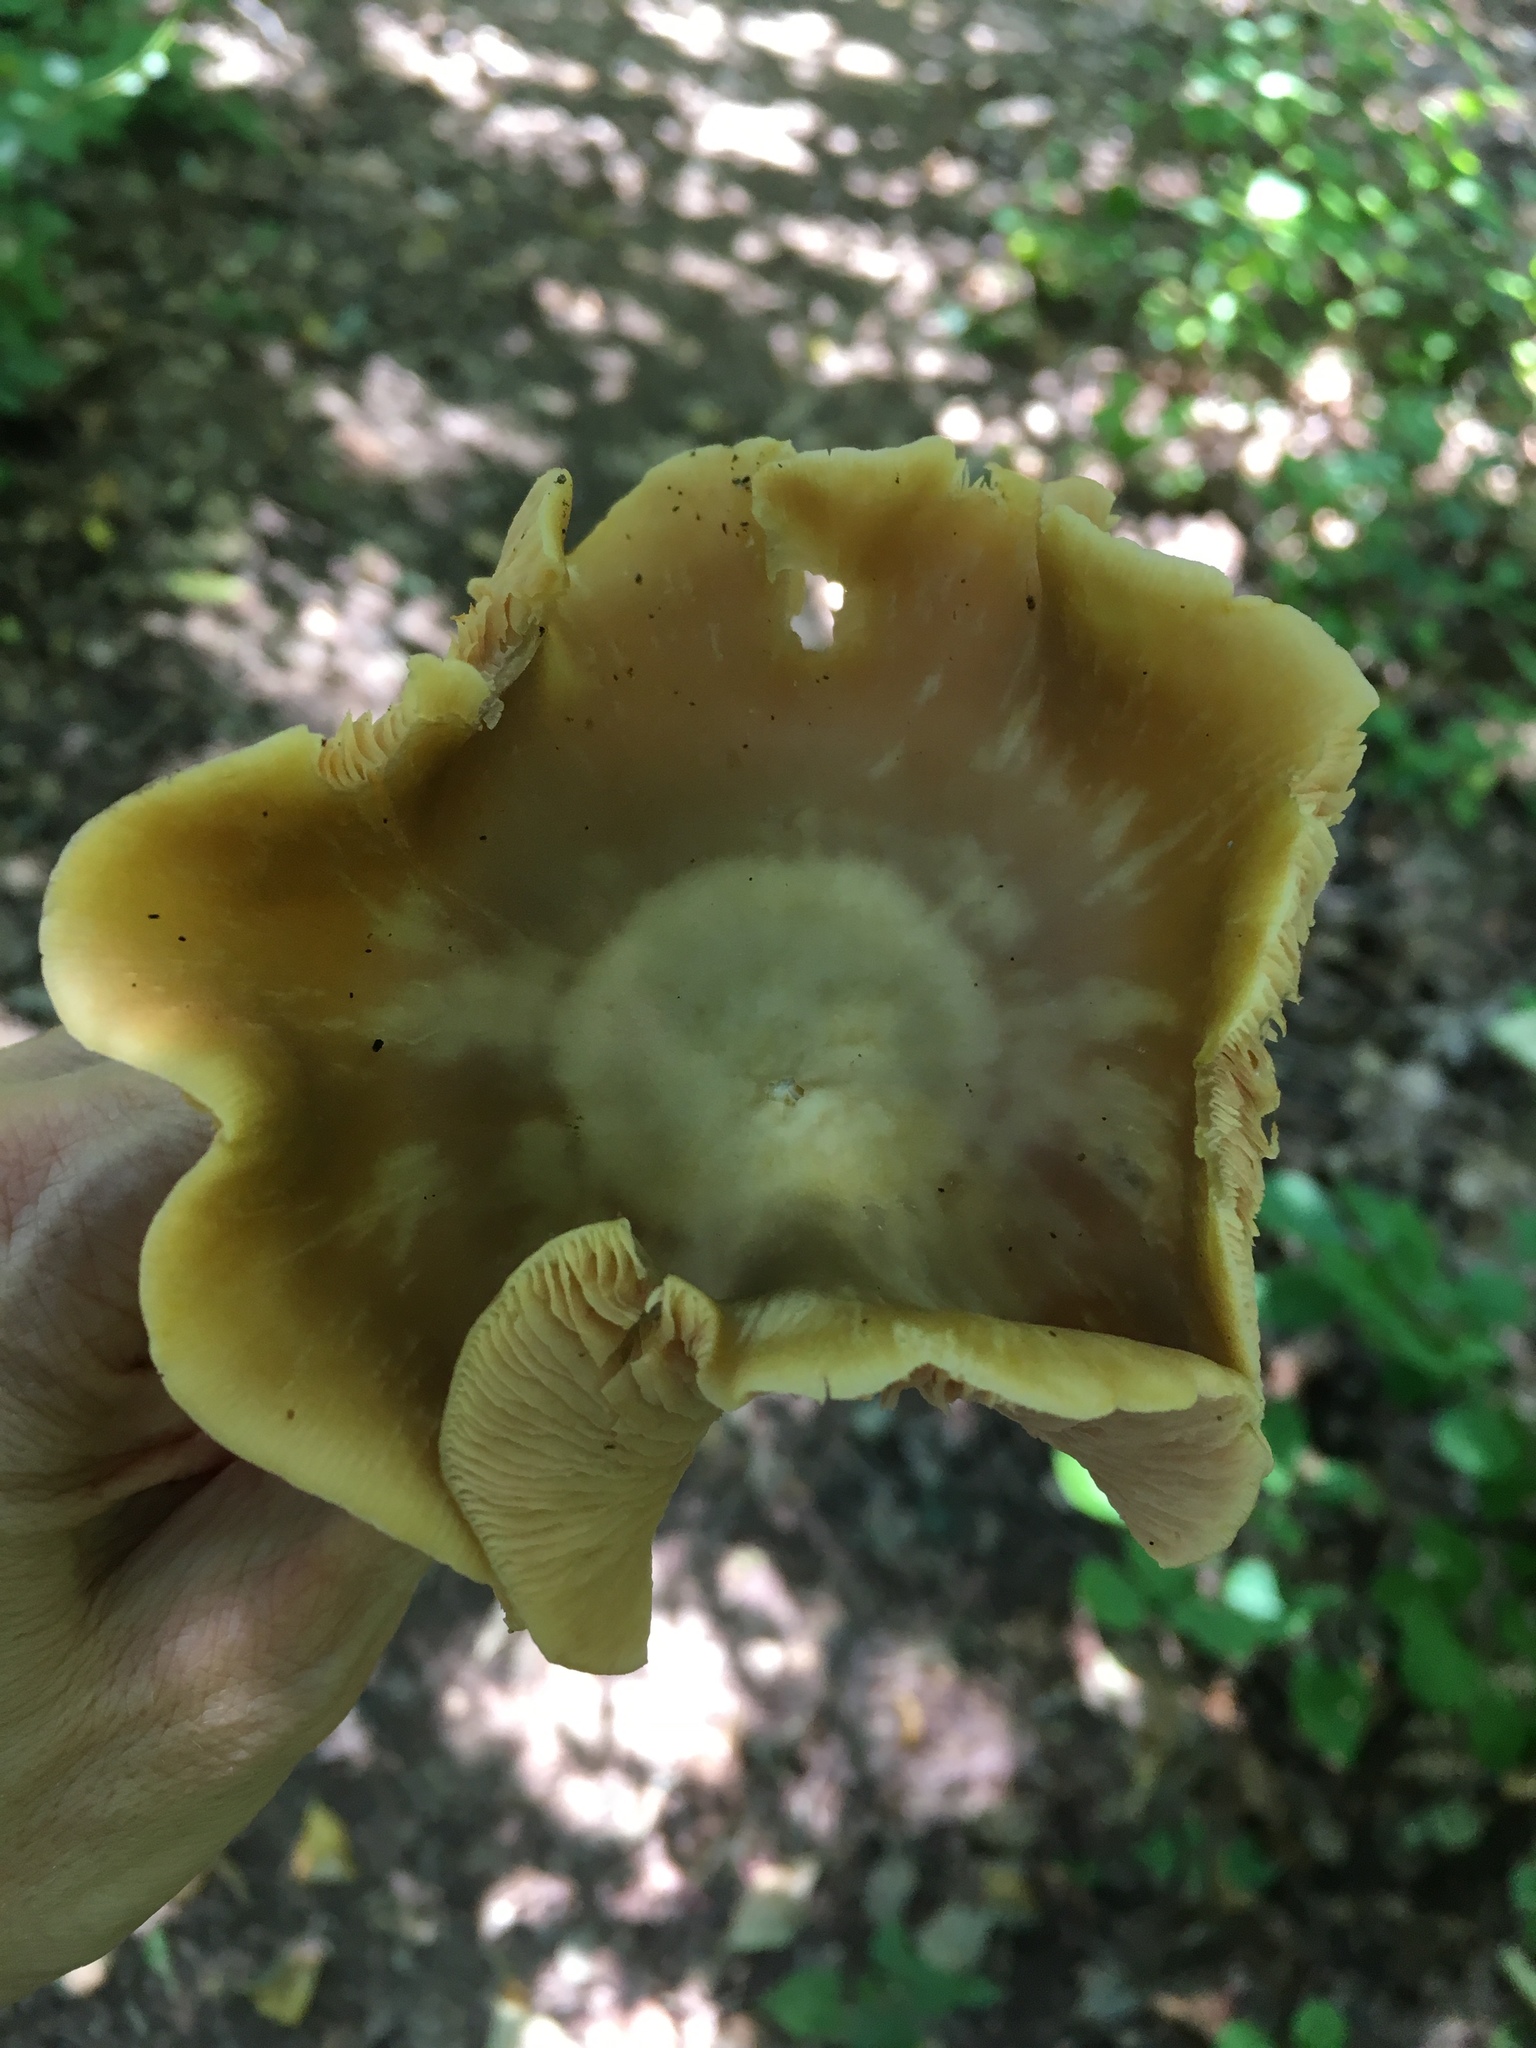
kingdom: Fungi
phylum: Basidiomycota
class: Agaricomycetes
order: Agaricales
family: Entolomataceae
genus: Entoloma
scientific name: Entoloma bicolor
